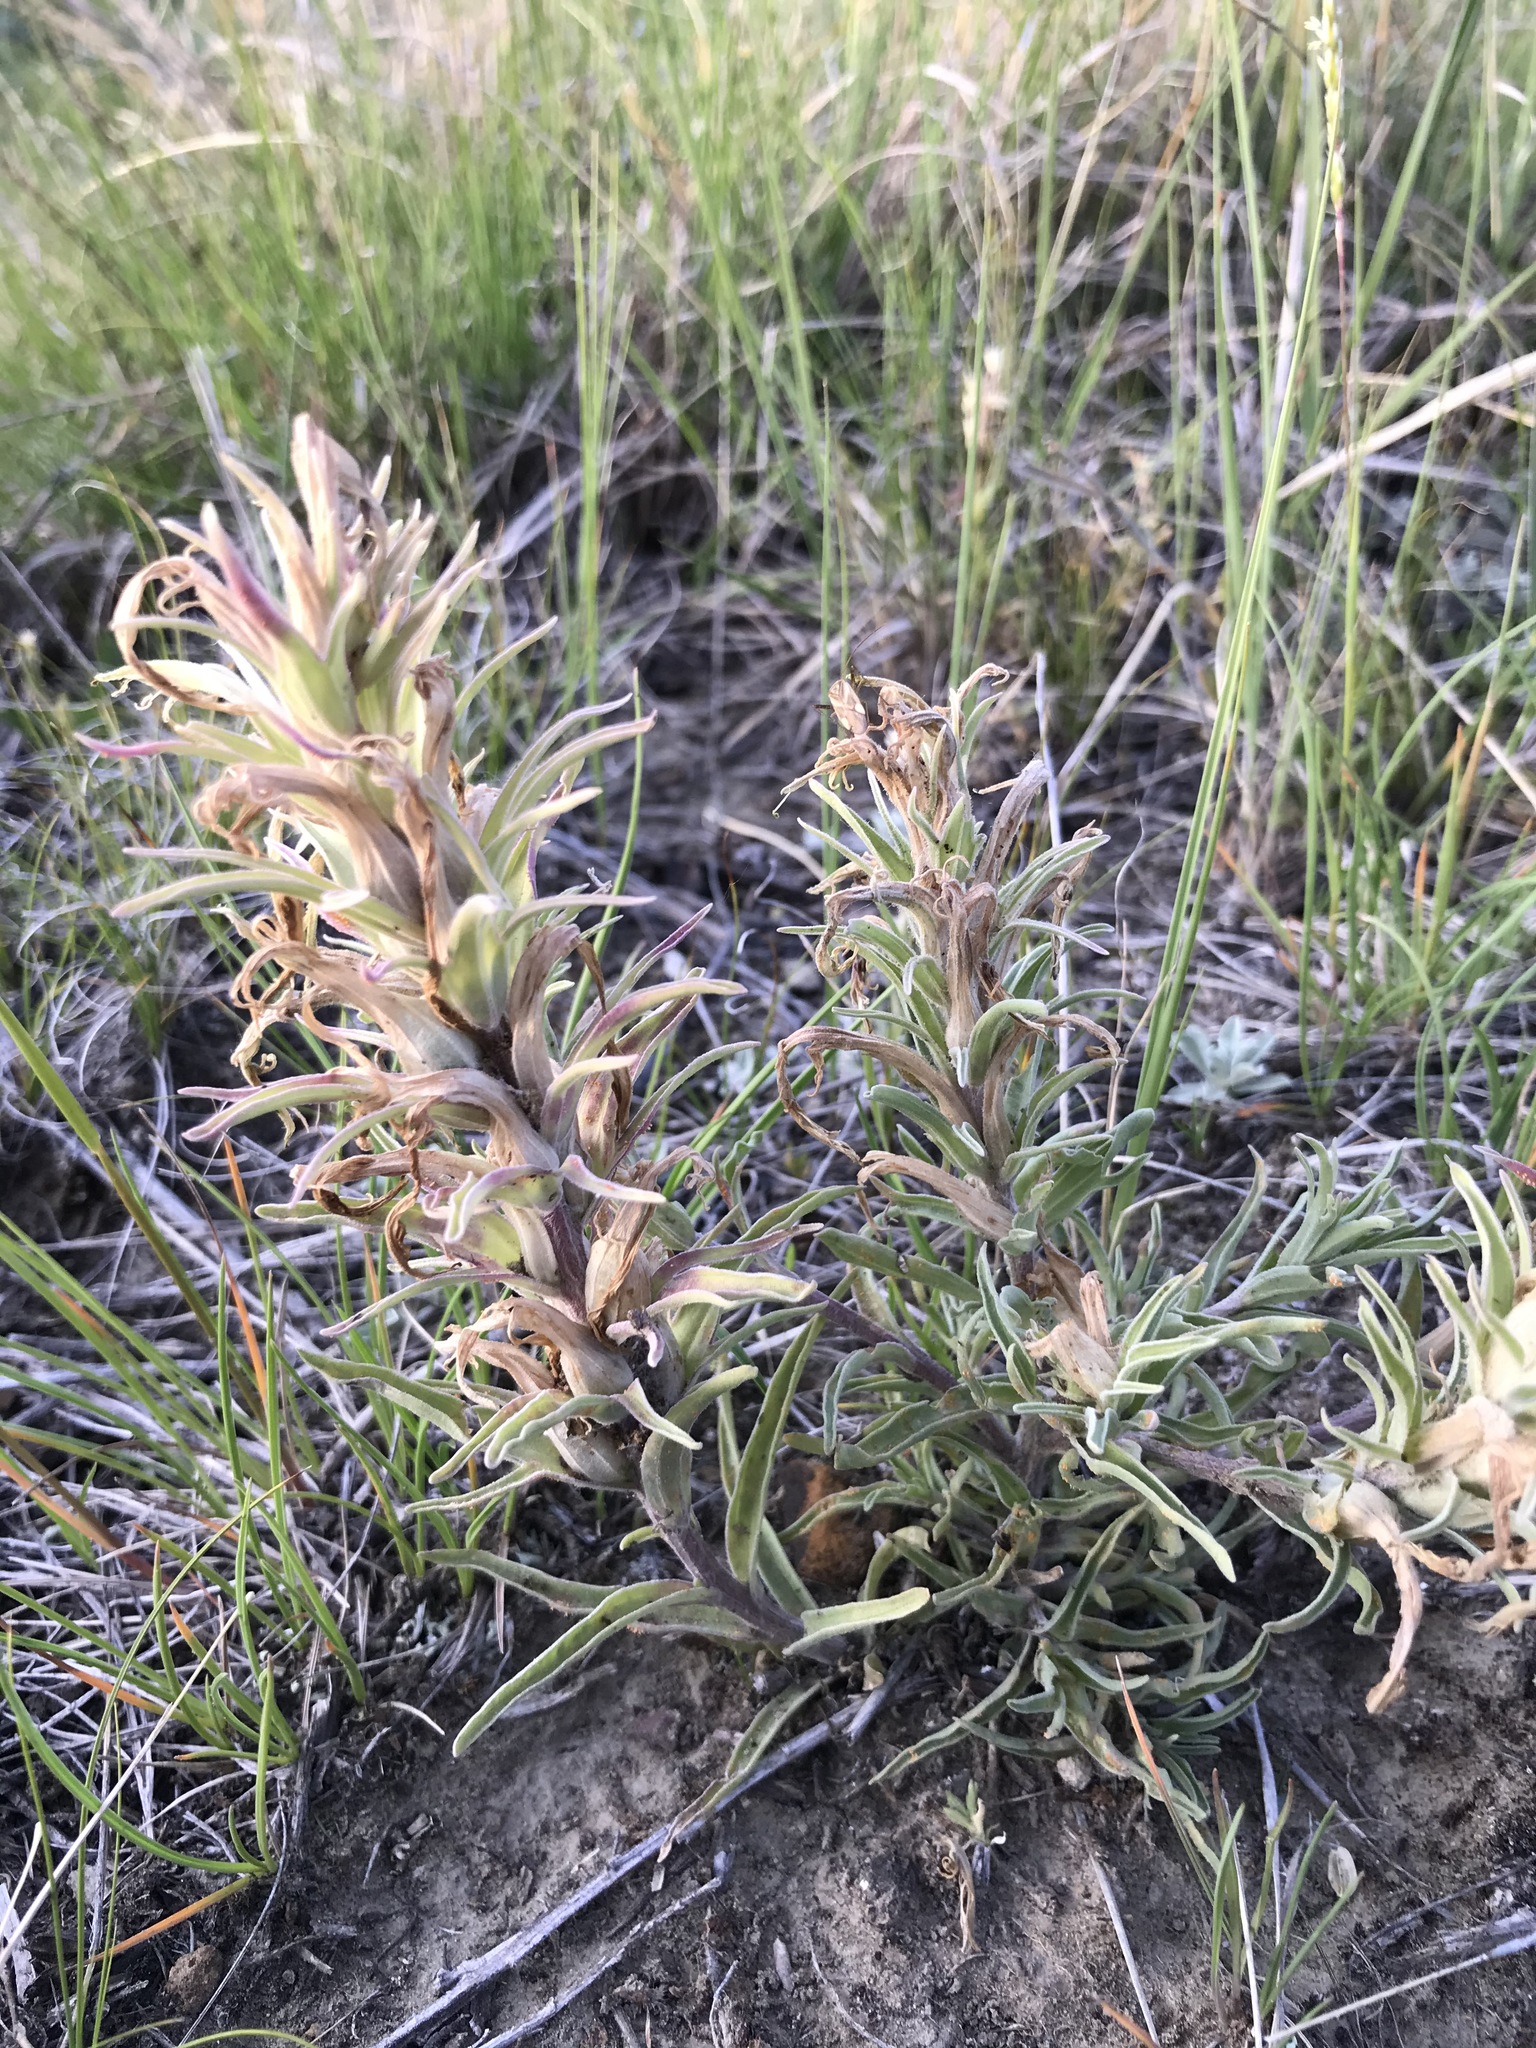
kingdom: Plantae
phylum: Tracheophyta
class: Magnoliopsida
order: Lamiales
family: Orobanchaceae
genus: Castilleja
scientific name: Castilleja sessiliflora
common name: Downy paintbrush
